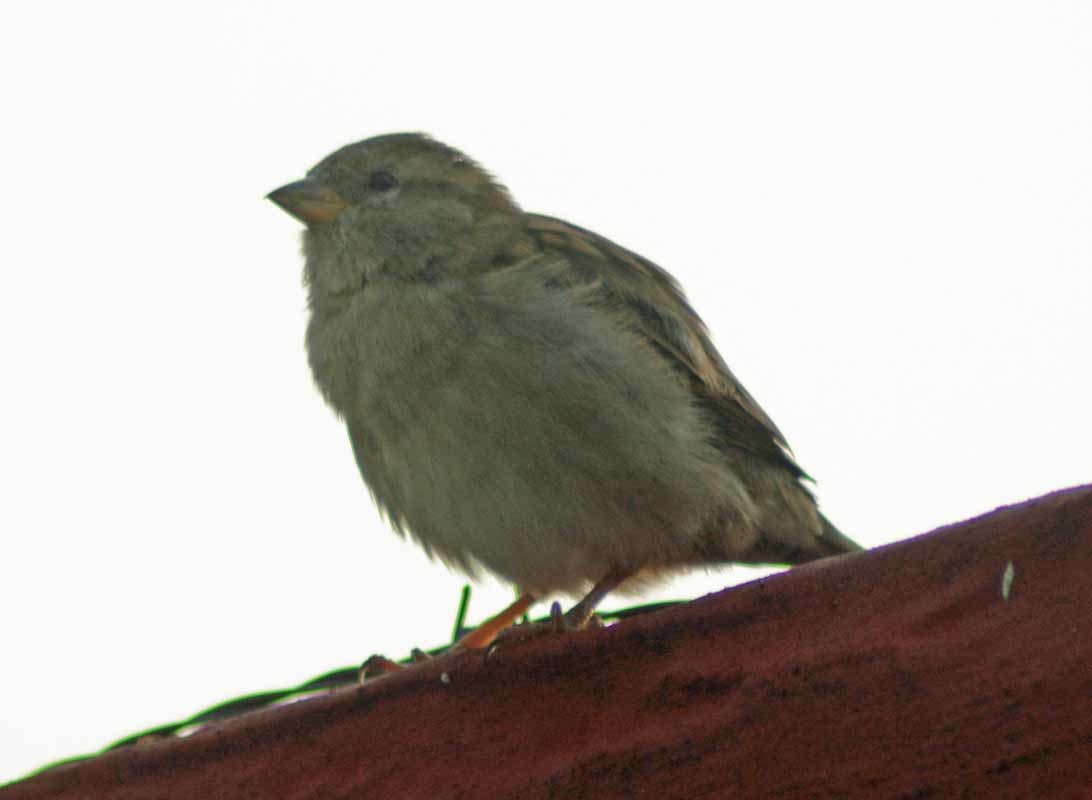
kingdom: Animalia
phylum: Chordata
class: Aves
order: Passeriformes
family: Passeridae
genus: Passer
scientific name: Passer domesticus
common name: House sparrow
